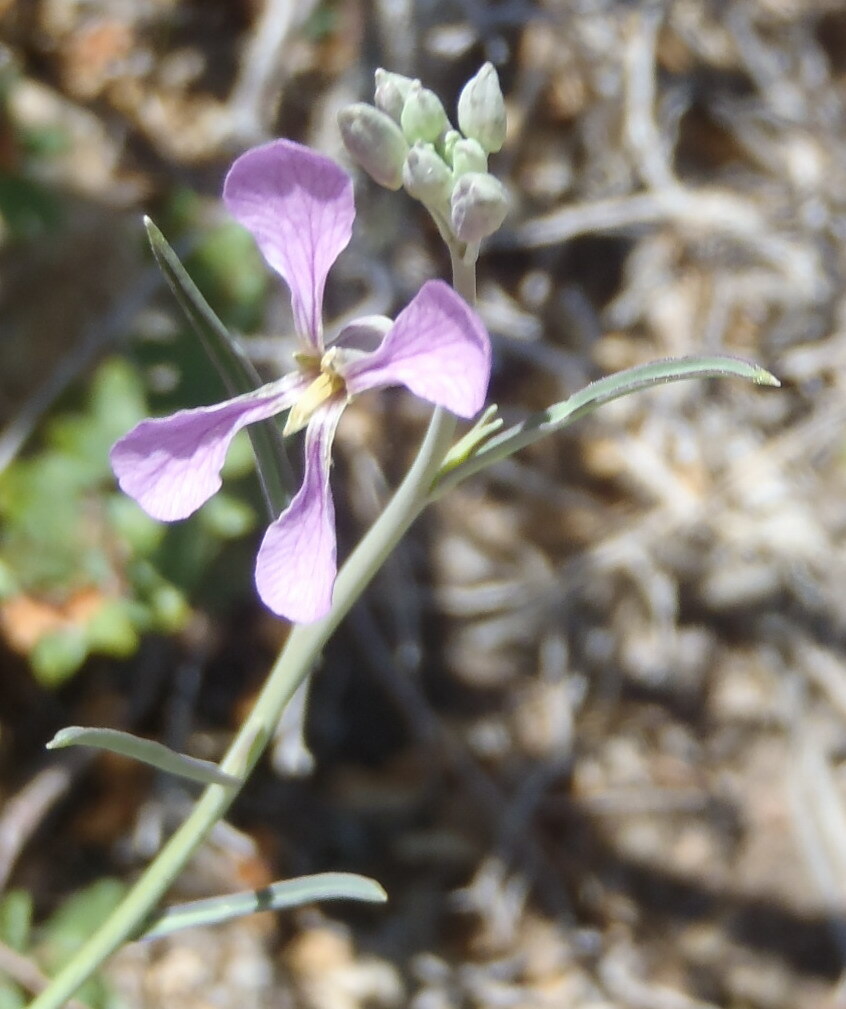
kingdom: Plantae
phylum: Tracheophyta
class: Magnoliopsida
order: Brassicales
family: Brassicaceae
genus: Hesperidanthus
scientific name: Hesperidanthus linearifolius
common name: Slim-leaf plains mustard
